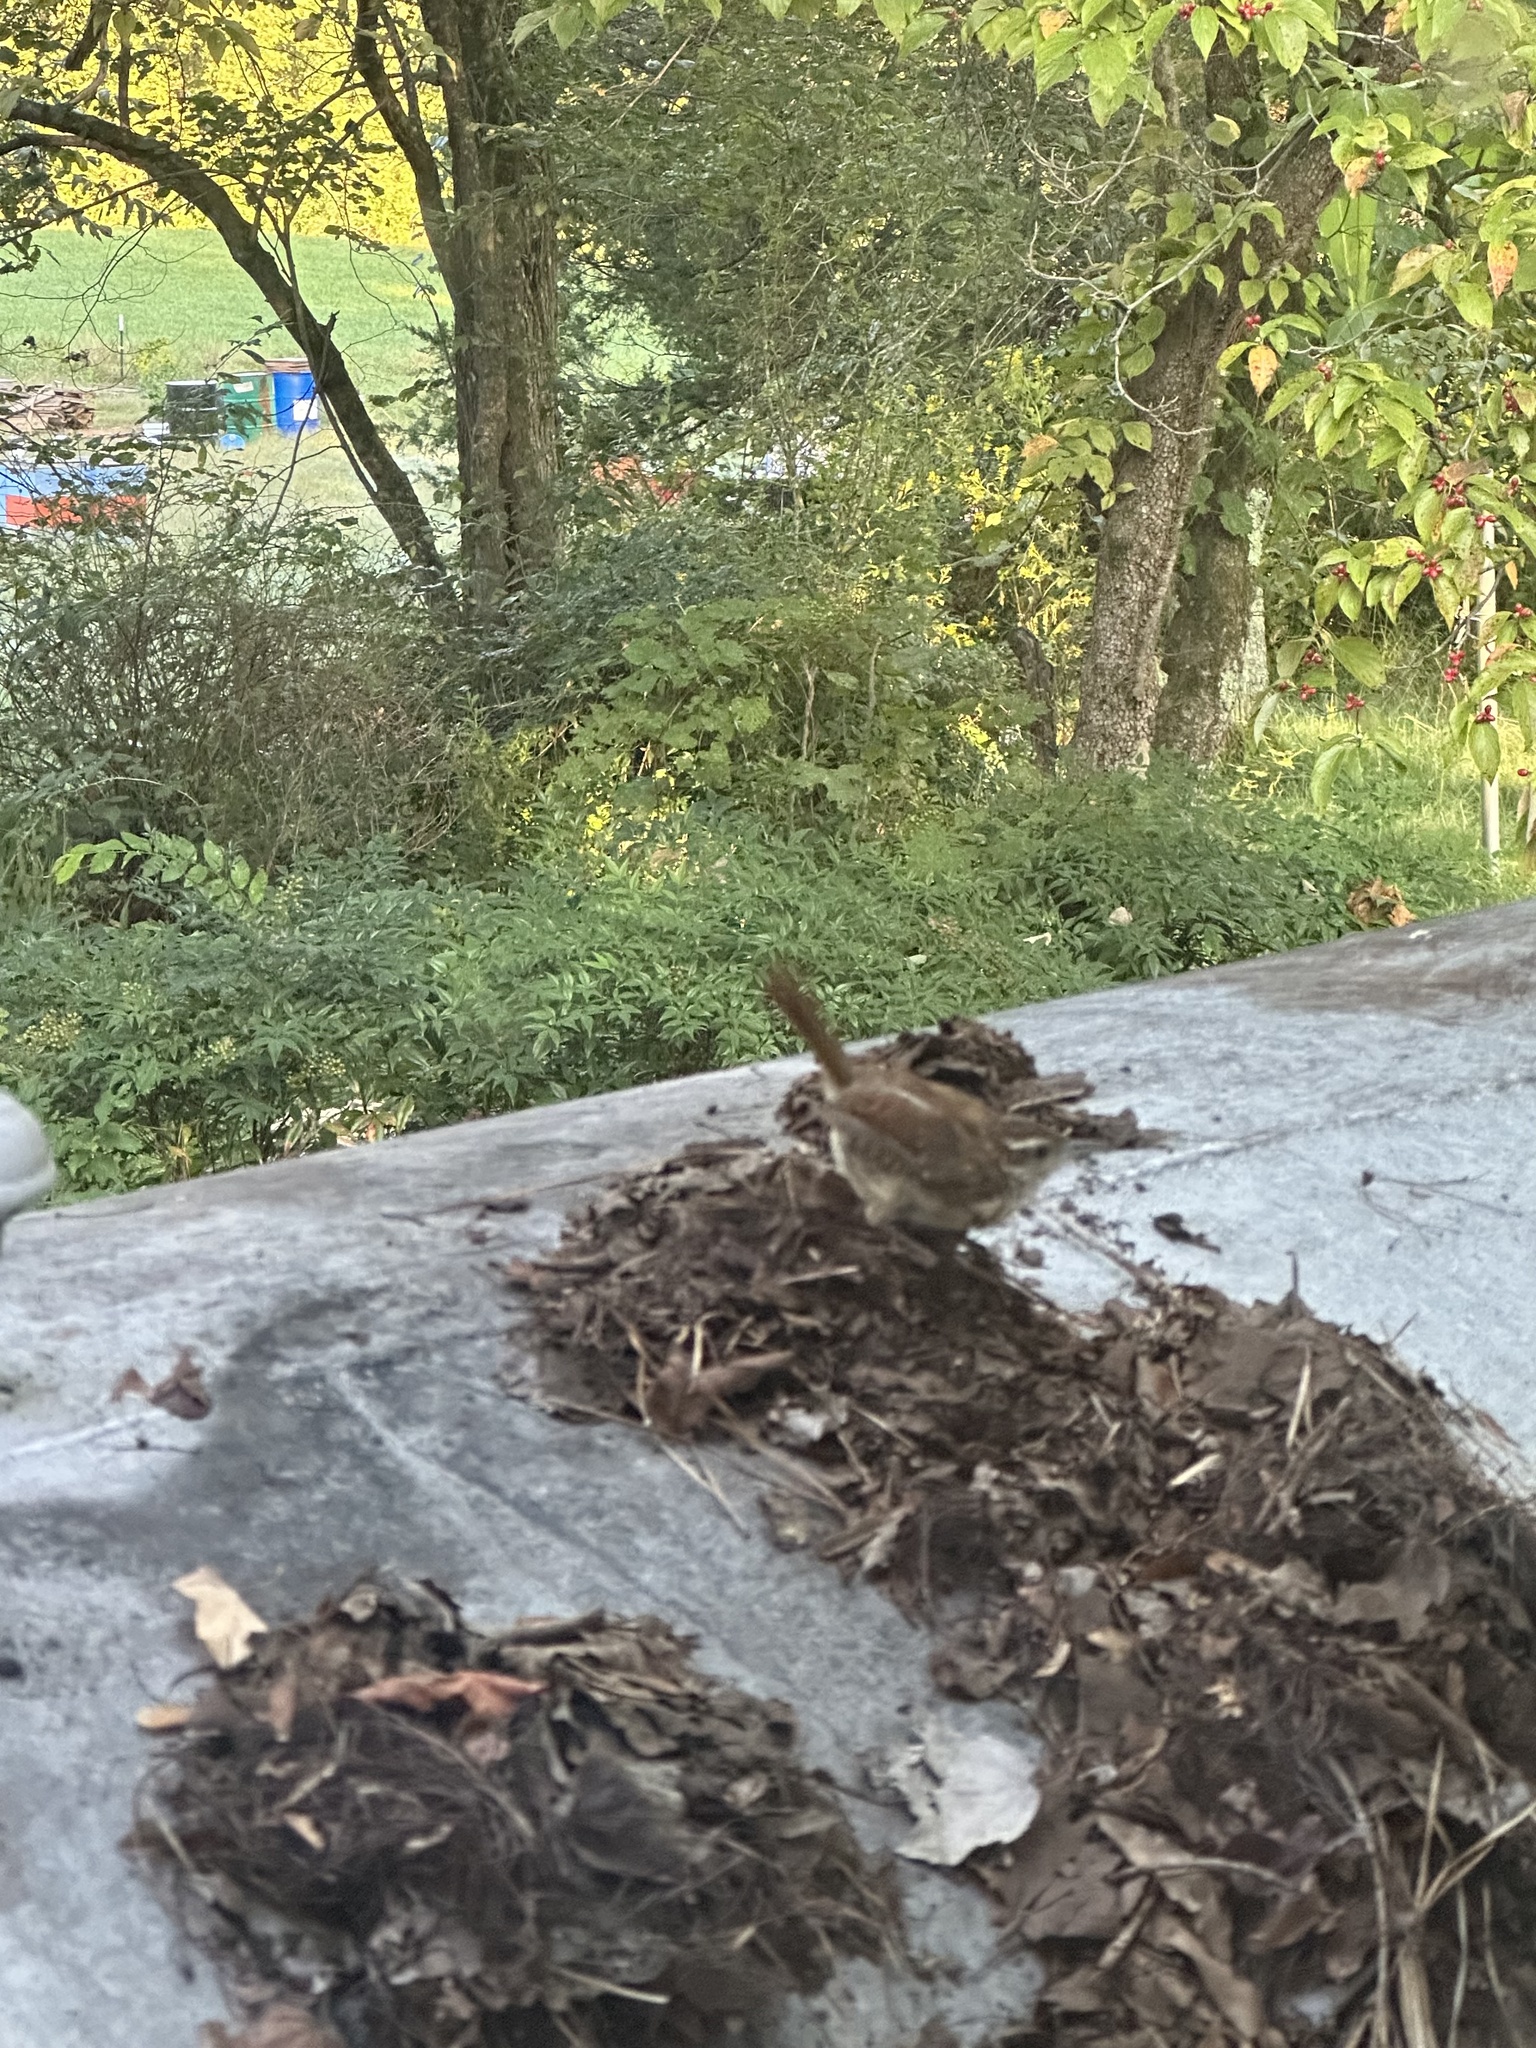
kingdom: Animalia
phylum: Chordata
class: Aves
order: Passeriformes
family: Troglodytidae
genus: Thryothorus
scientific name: Thryothorus ludovicianus
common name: Carolina wren
